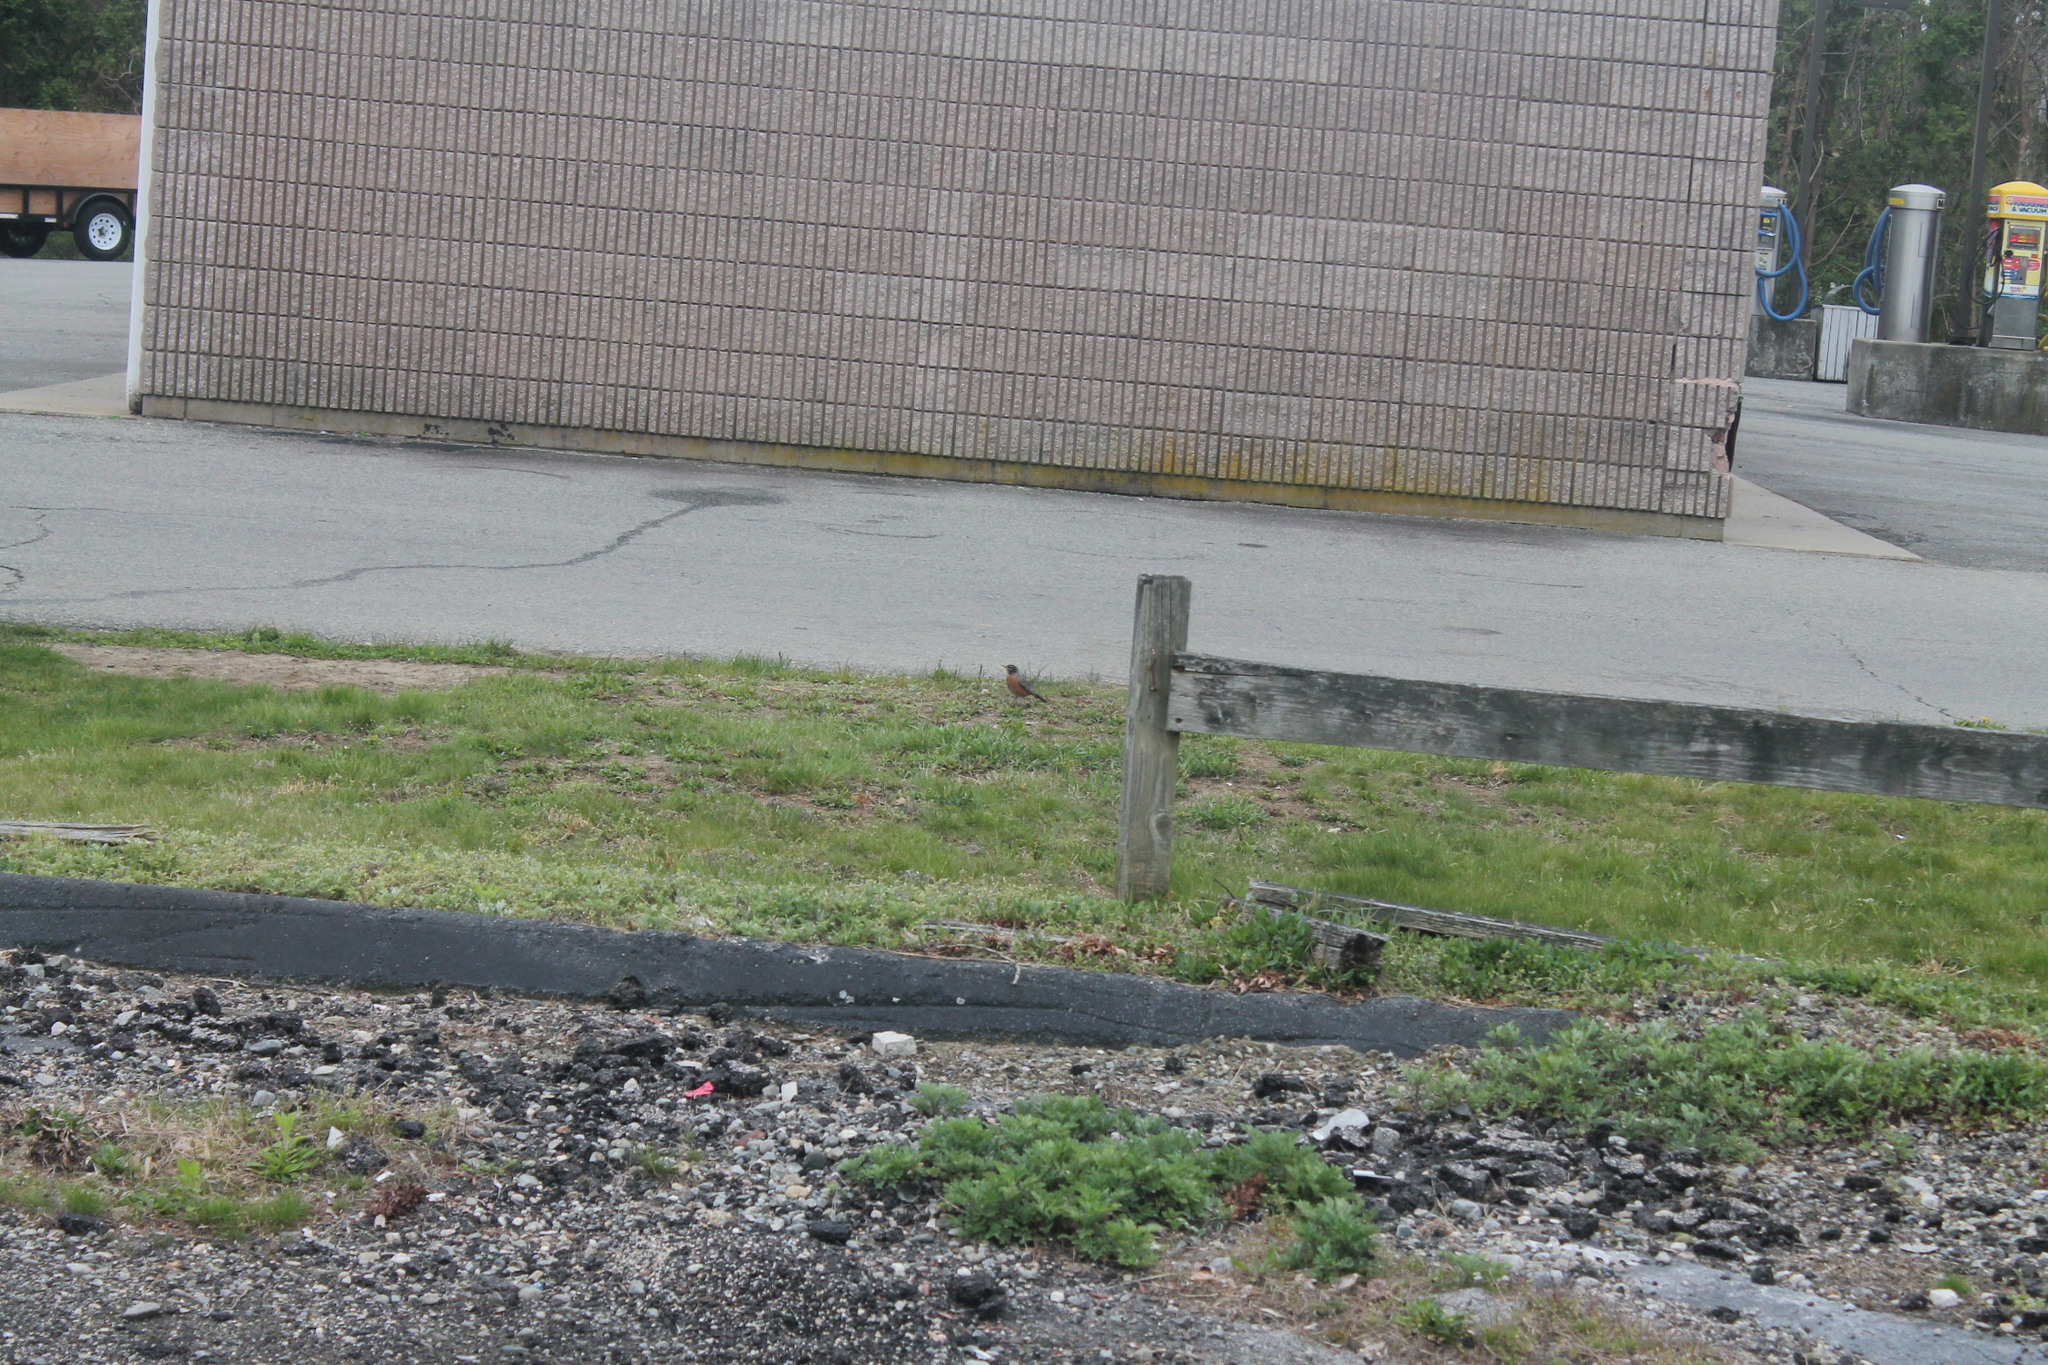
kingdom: Animalia
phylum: Chordata
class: Aves
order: Passeriformes
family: Turdidae
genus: Turdus
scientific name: Turdus migratorius
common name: American robin
